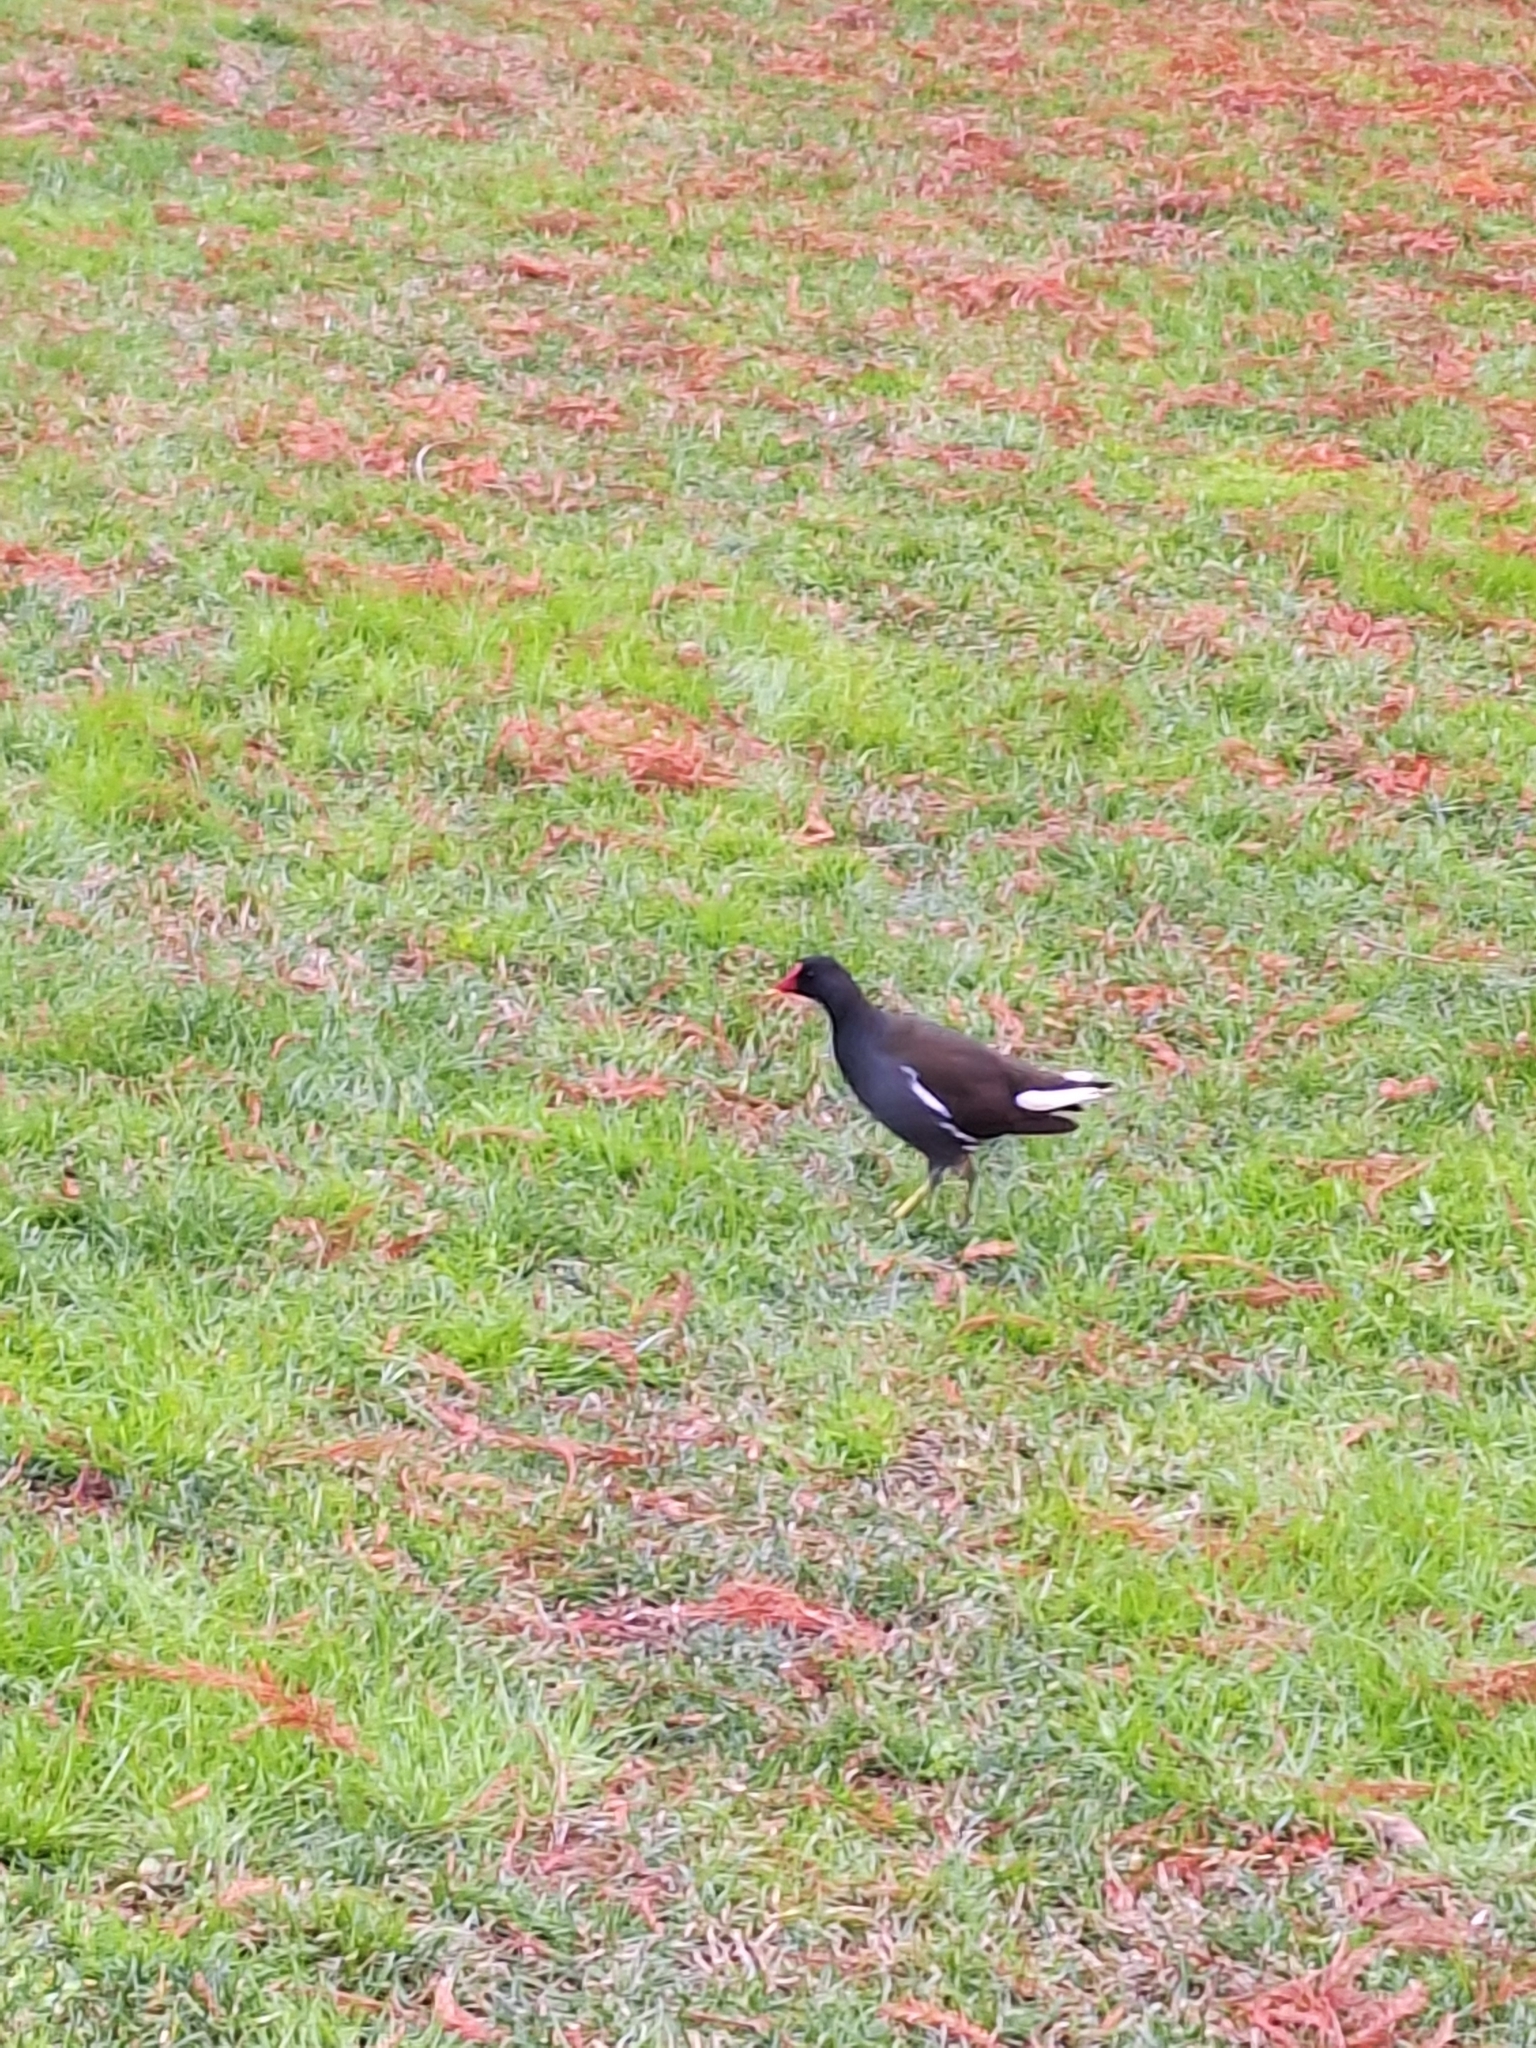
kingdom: Animalia
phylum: Chordata
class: Aves
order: Gruiformes
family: Rallidae
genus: Gallinula
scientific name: Gallinula chloropus
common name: Common moorhen
